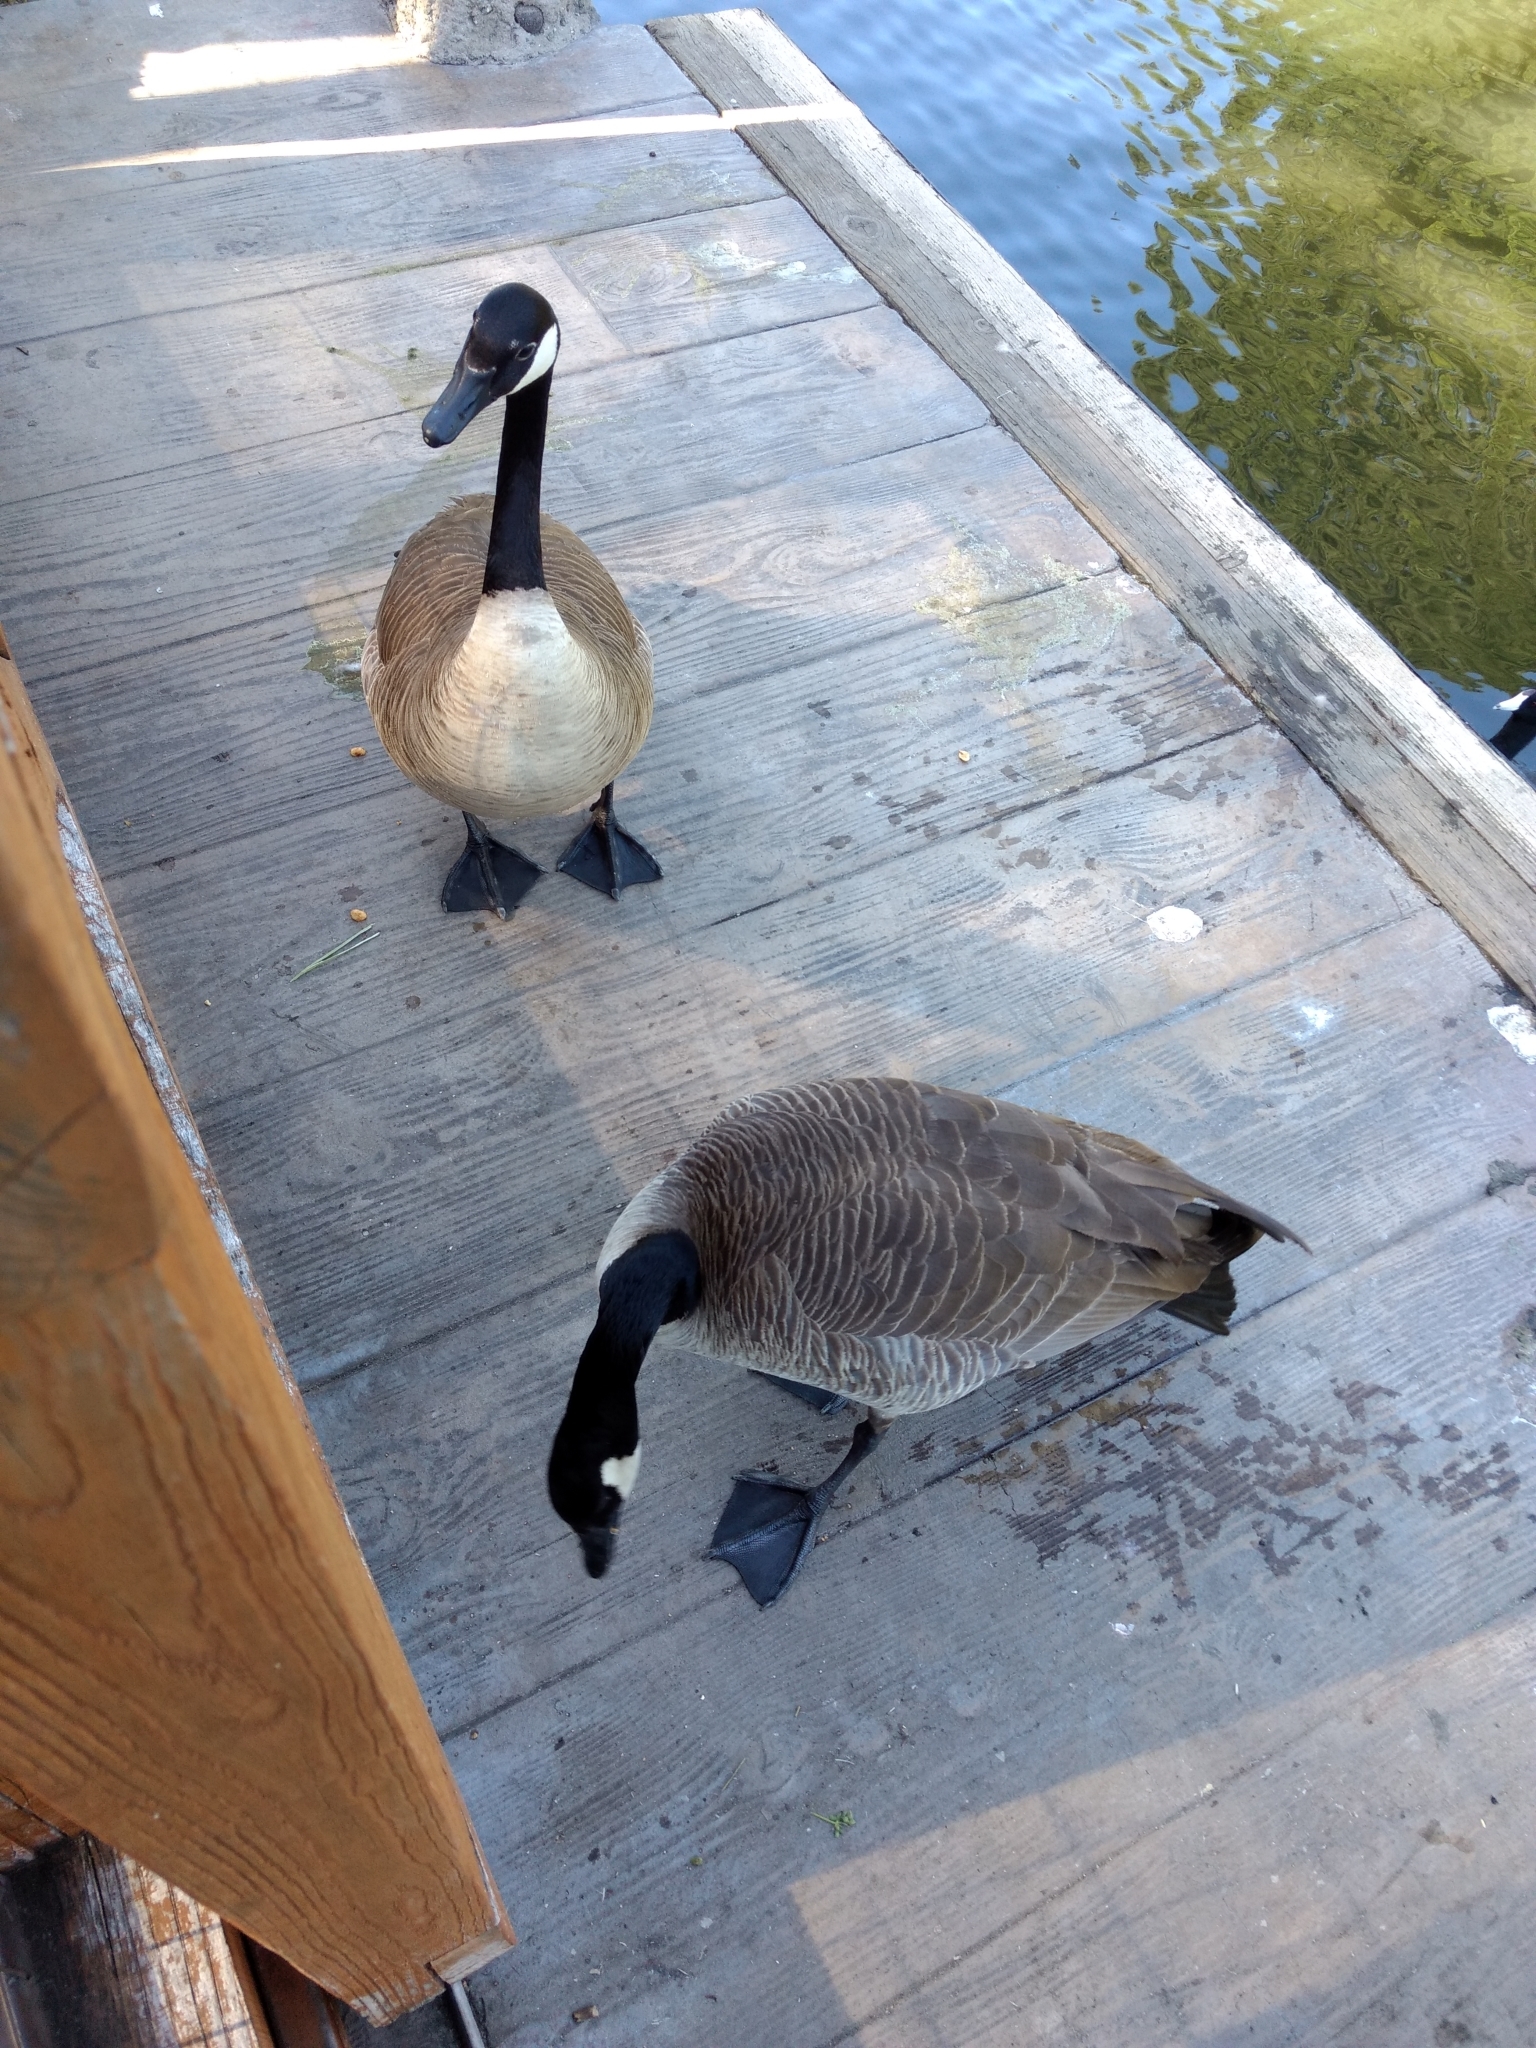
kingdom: Animalia
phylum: Chordata
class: Aves
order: Anseriformes
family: Anatidae
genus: Branta
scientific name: Branta canadensis
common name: Canada goose
